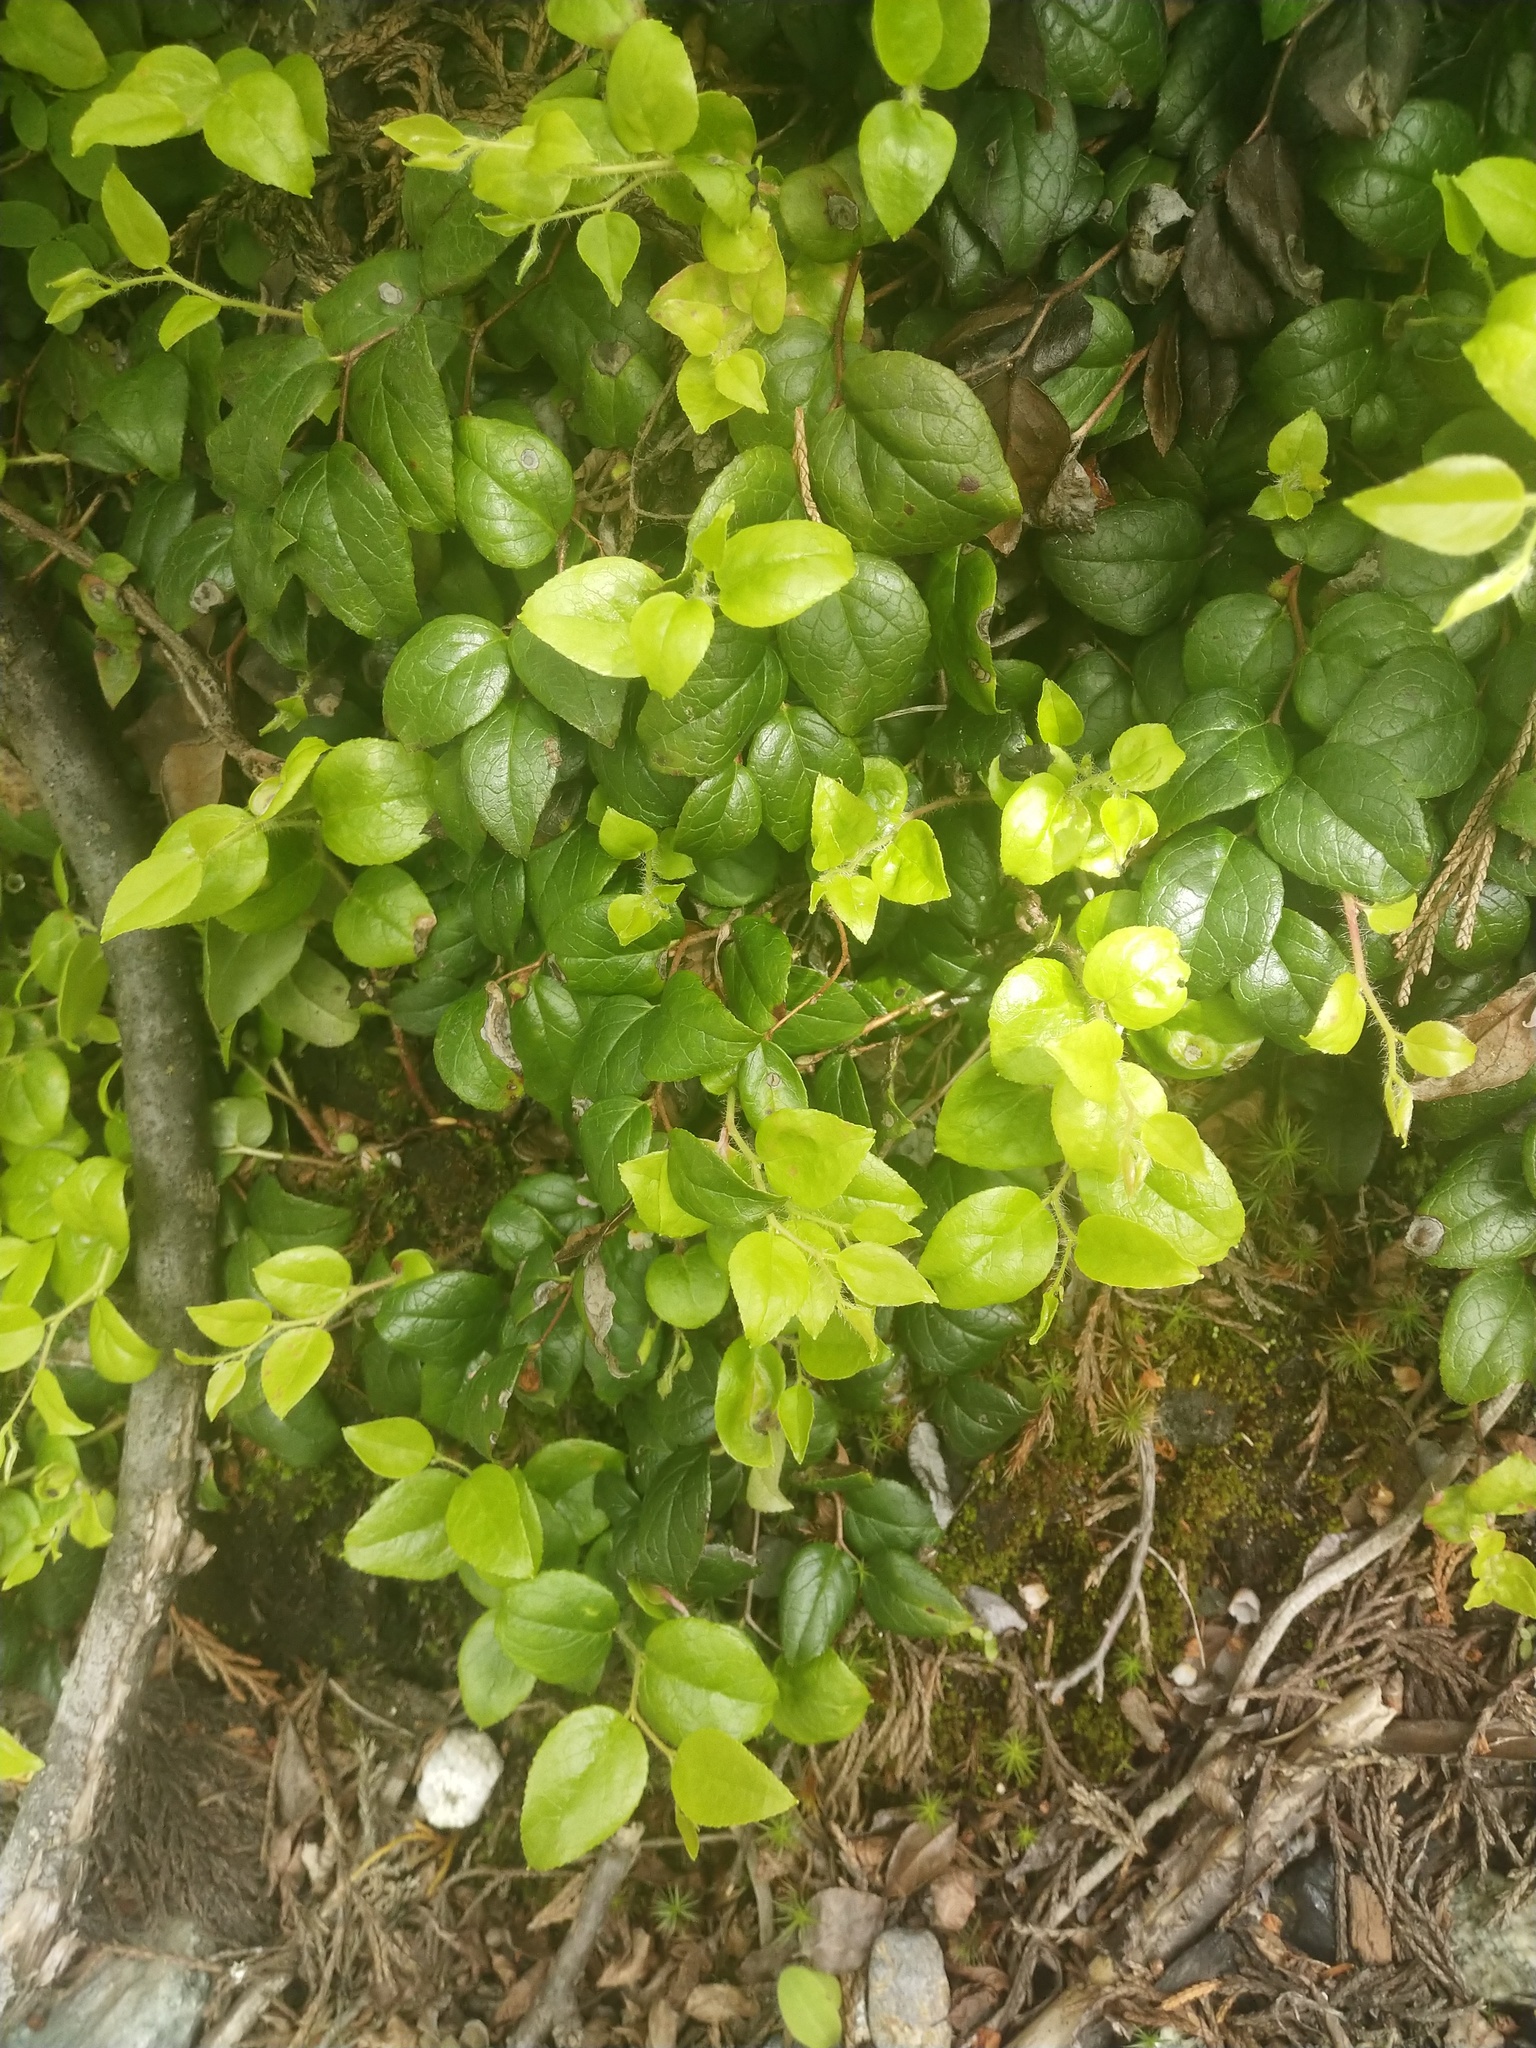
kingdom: Plantae
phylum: Tracheophyta
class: Magnoliopsida
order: Ericales
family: Ericaceae
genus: Gaultheria
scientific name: Gaultheria ovatifolia
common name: Oregon wintergreen
